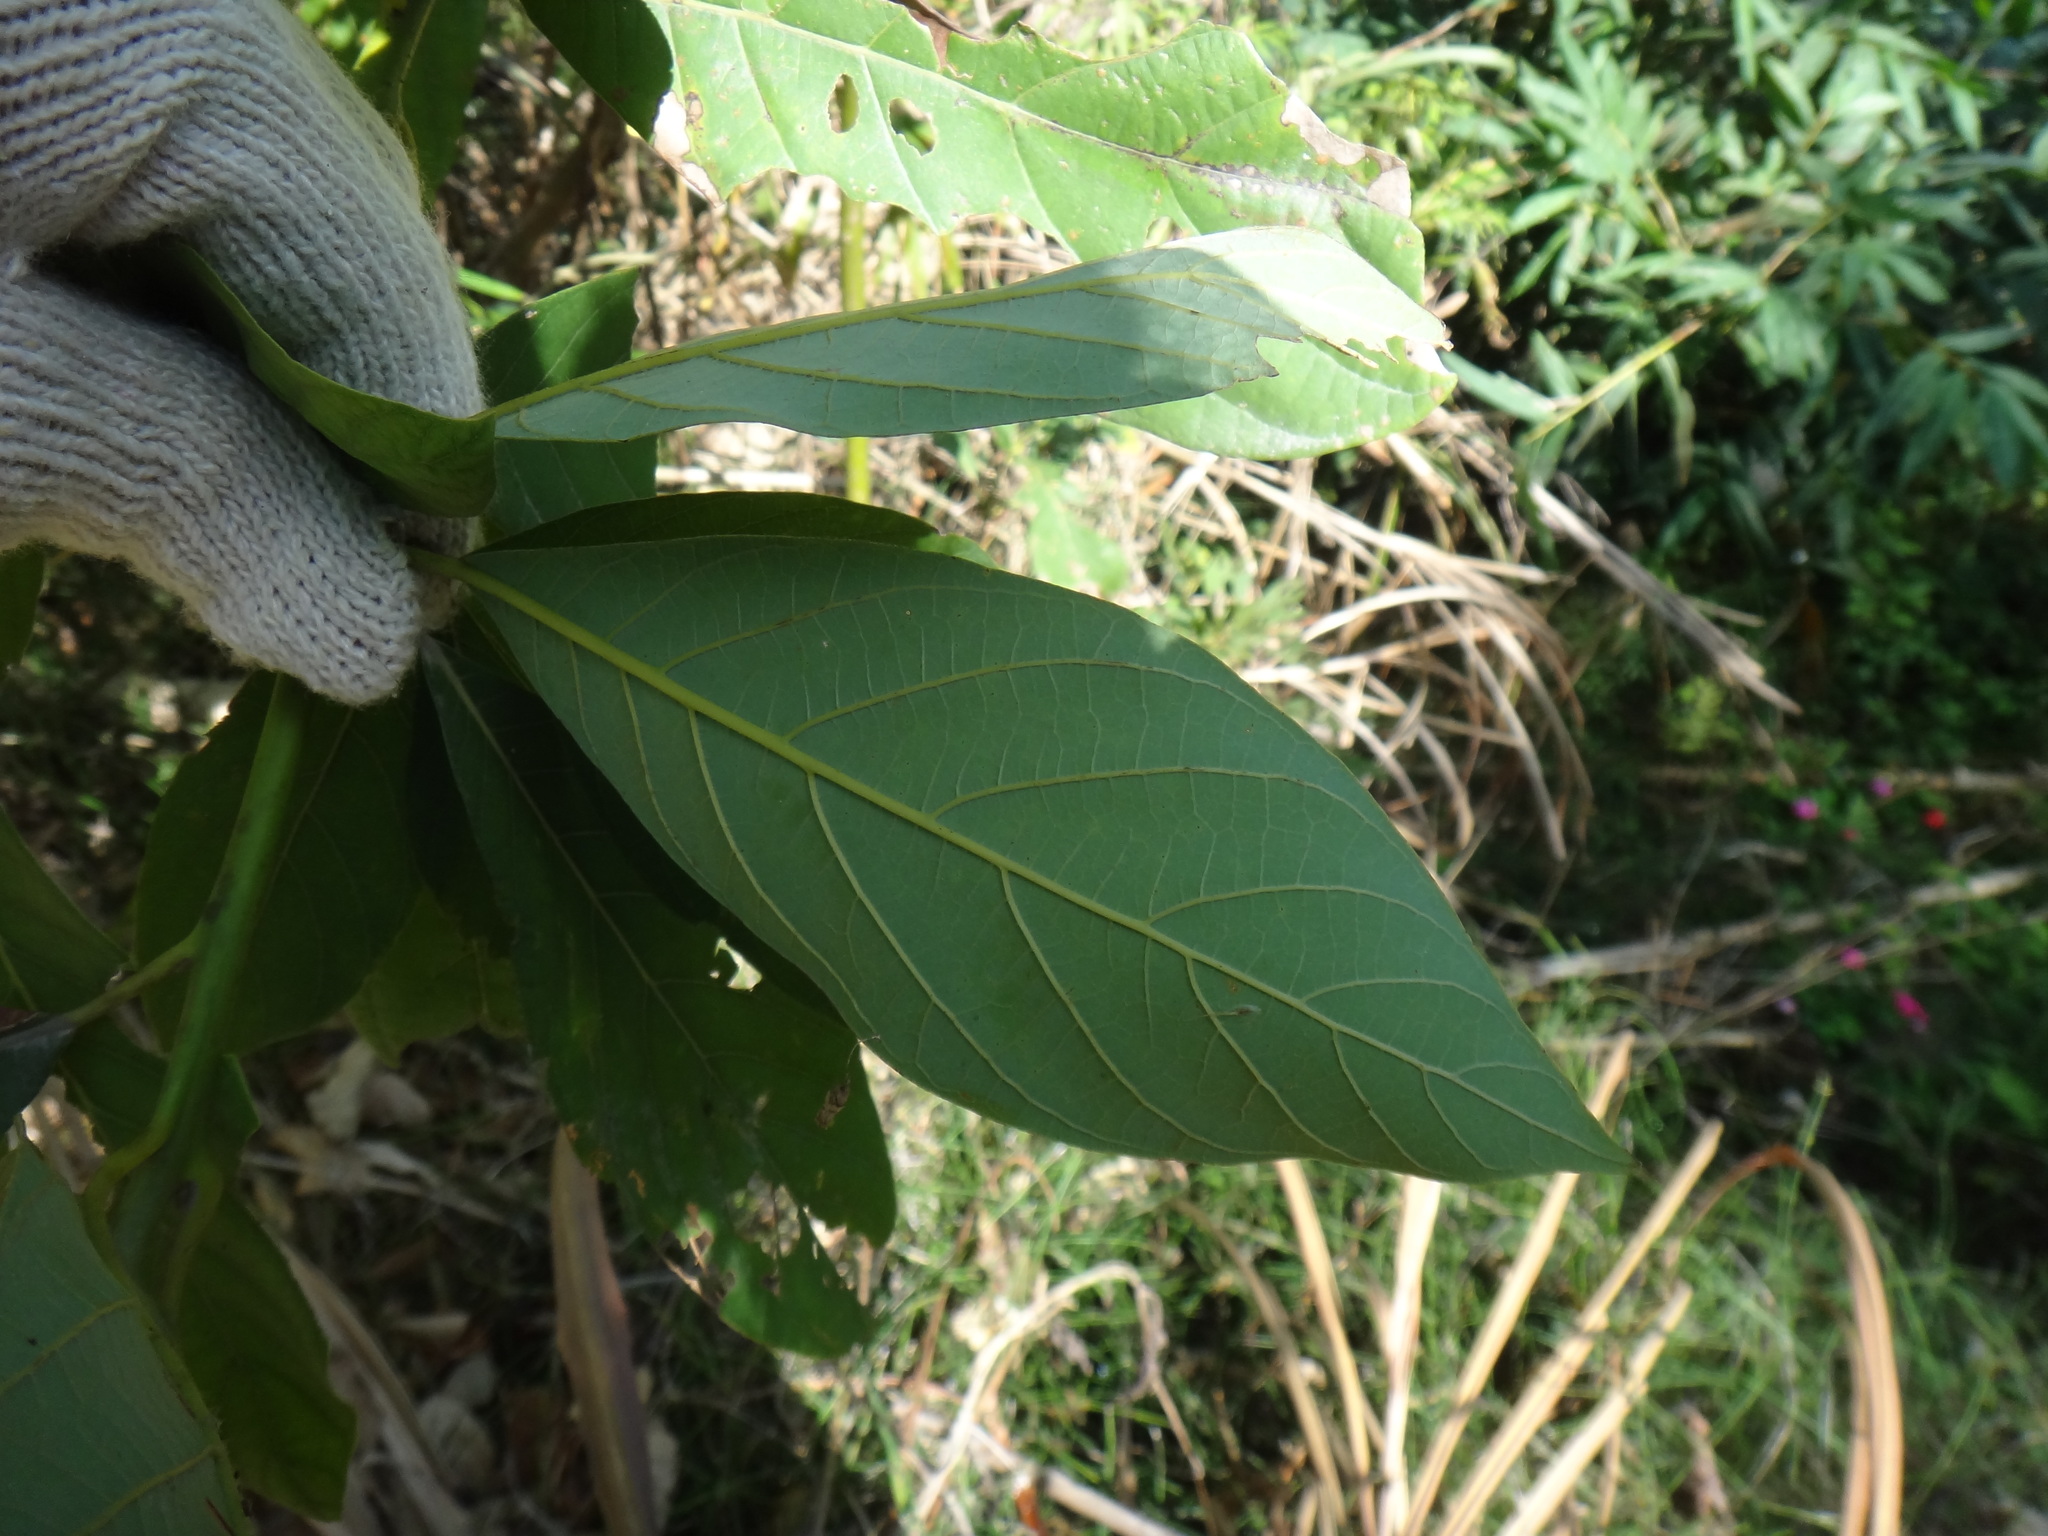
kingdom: Plantae
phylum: Tracheophyta
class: Magnoliopsida
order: Laurales
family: Lauraceae
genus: Phoebe
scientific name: Phoebe formosana
